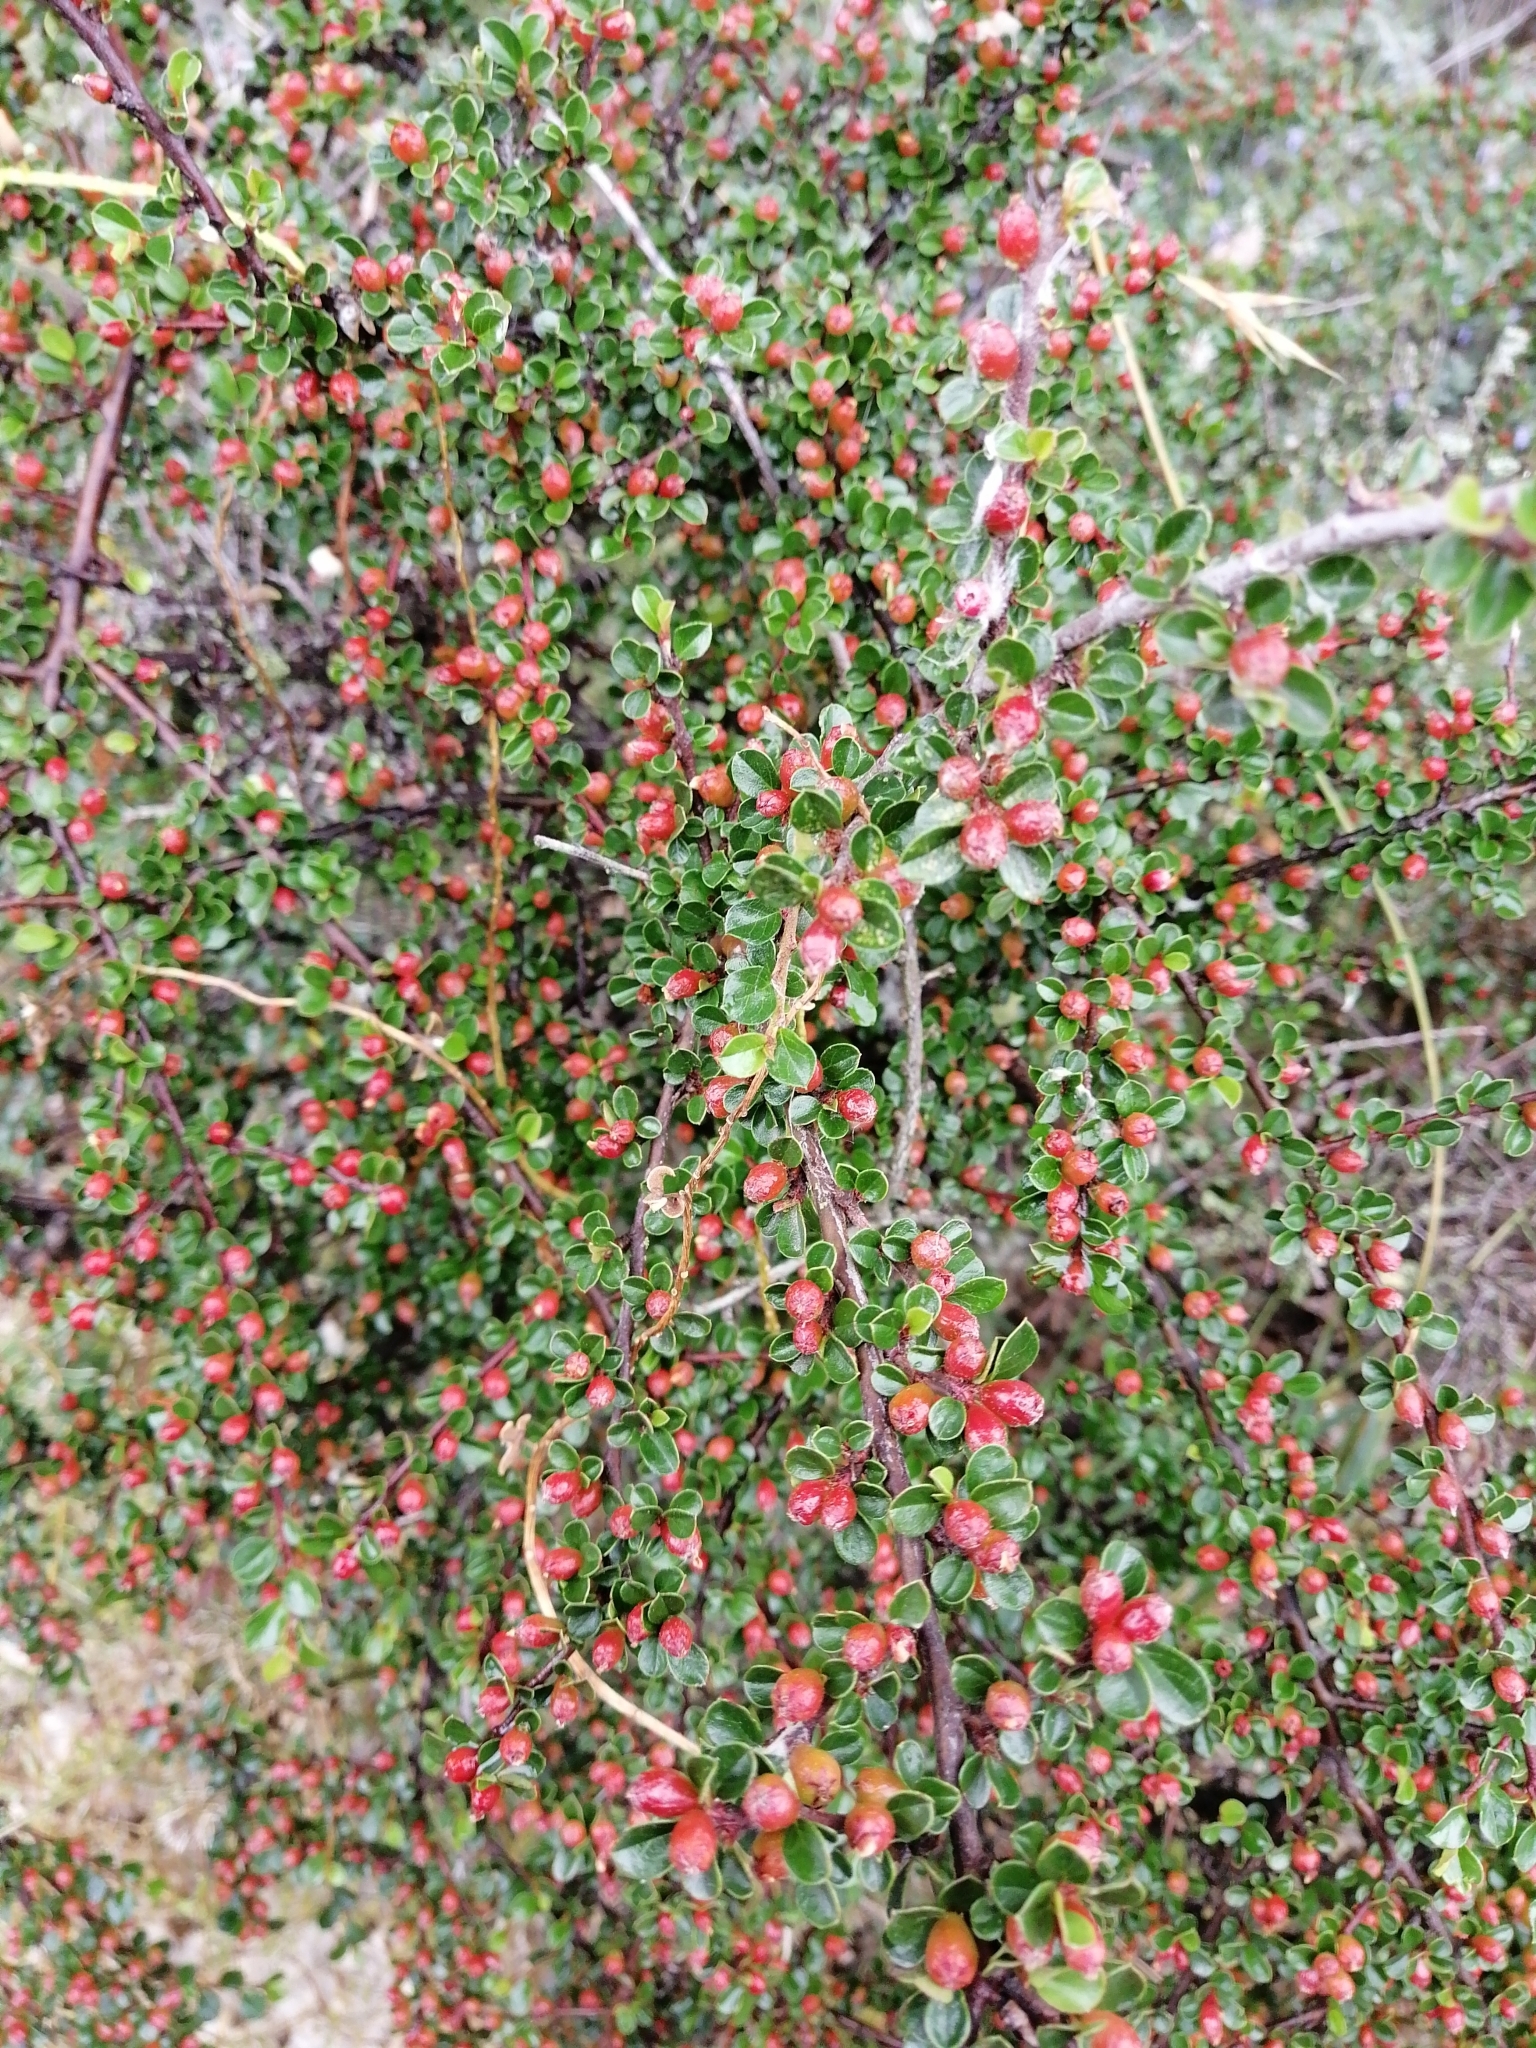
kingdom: Plantae
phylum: Tracheophyta
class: Magnoliopsida
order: Rosales
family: Rosaceae
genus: Cotoneaster
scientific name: Cotoneaster horizontalis
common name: Wall cotoneaster
